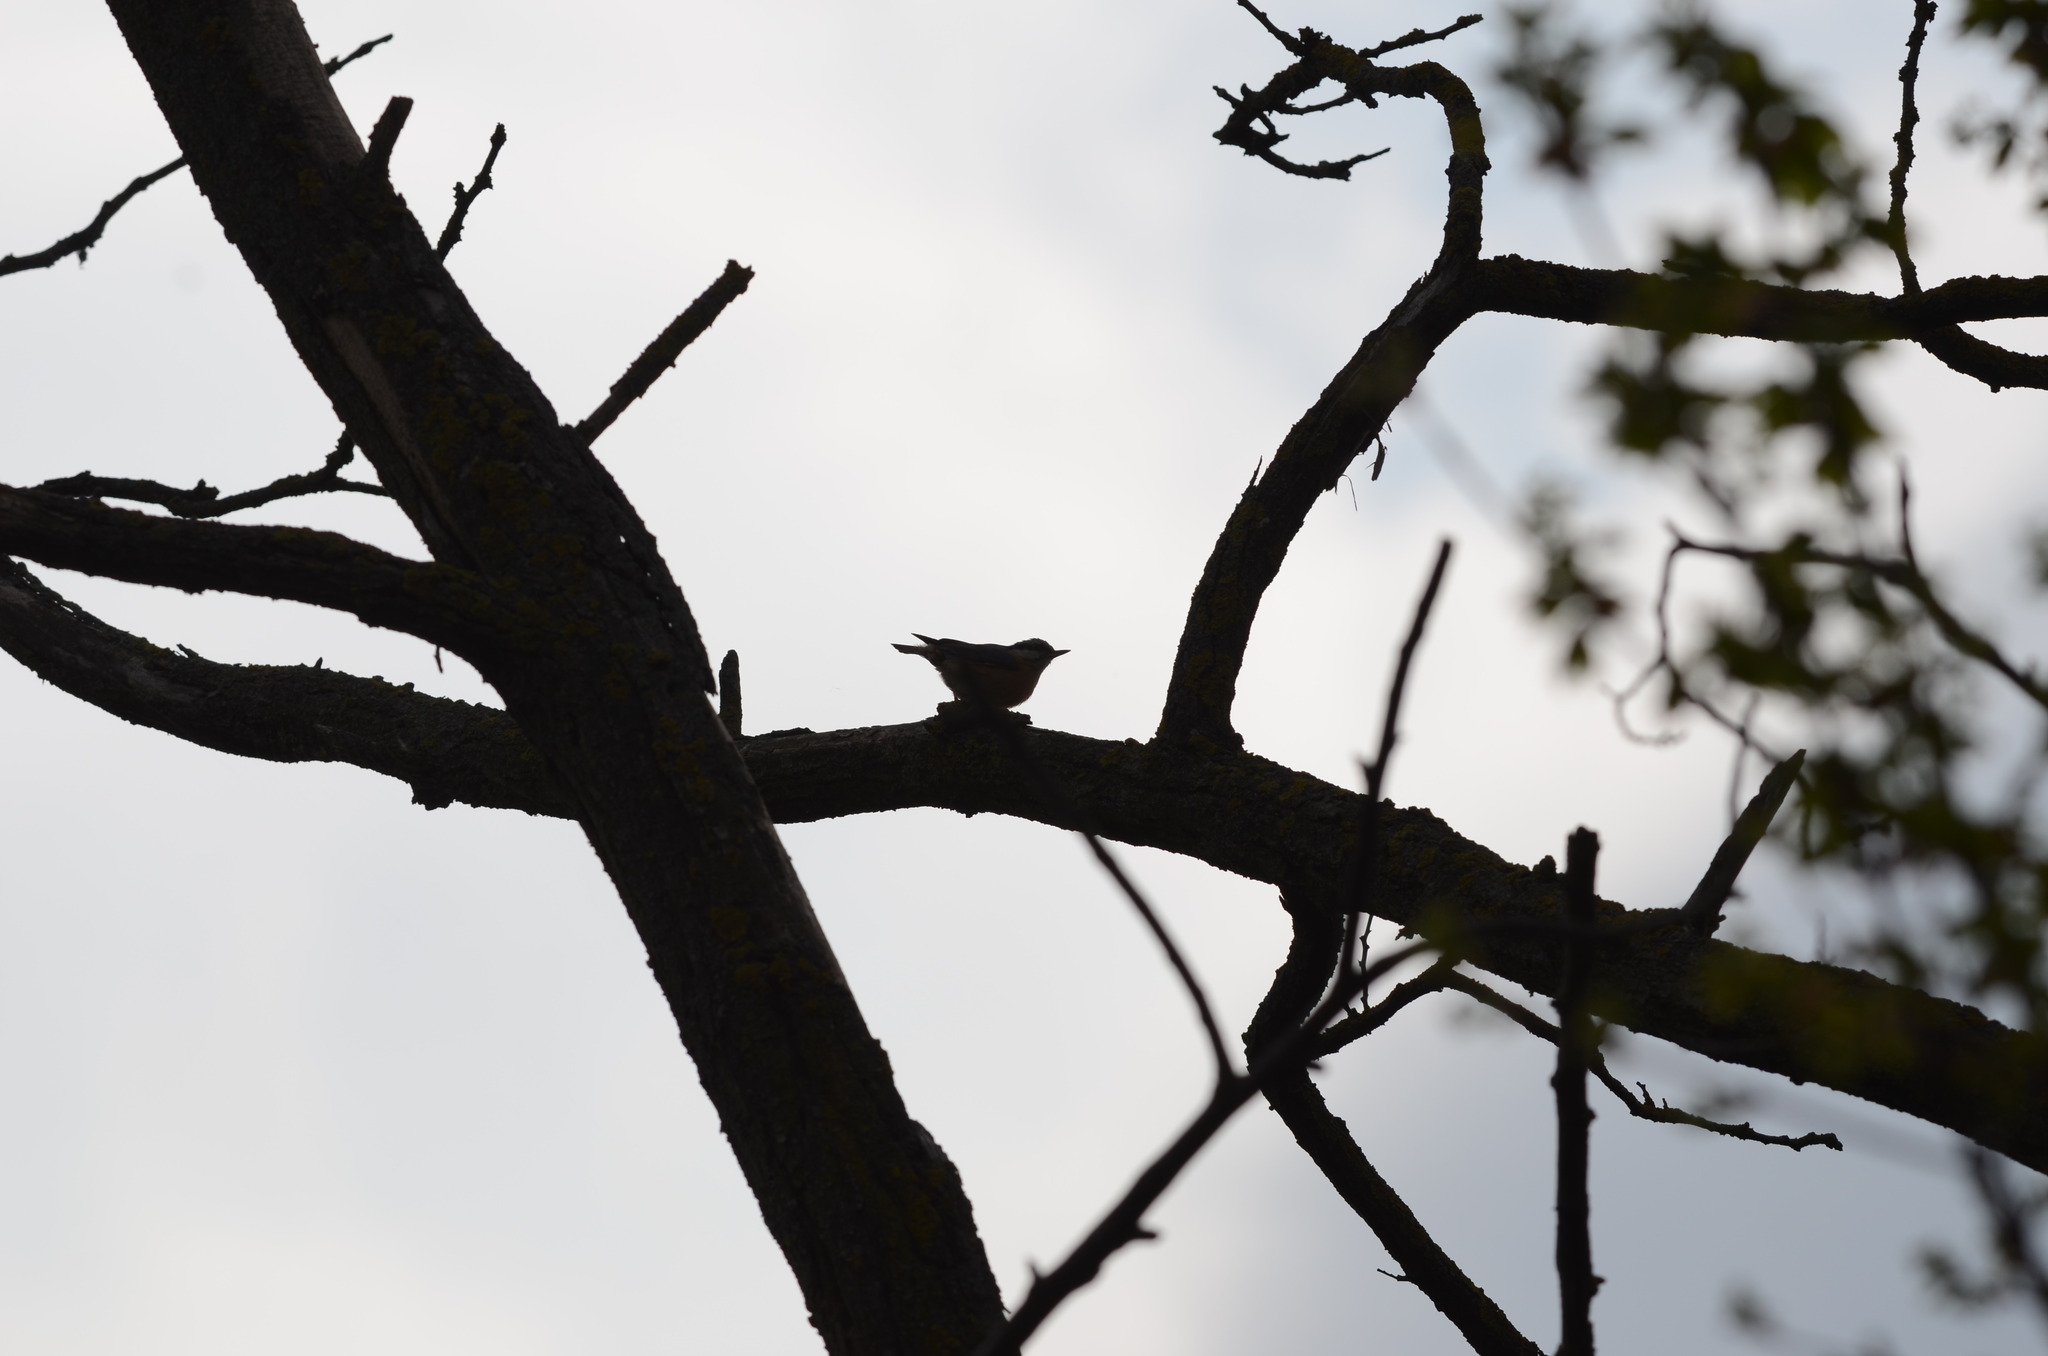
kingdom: Animalia
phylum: Chordata
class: Aves
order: Passeriformes
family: Sittidae
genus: Sitta
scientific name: Sitta europaea
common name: Eurasian nuthatch
